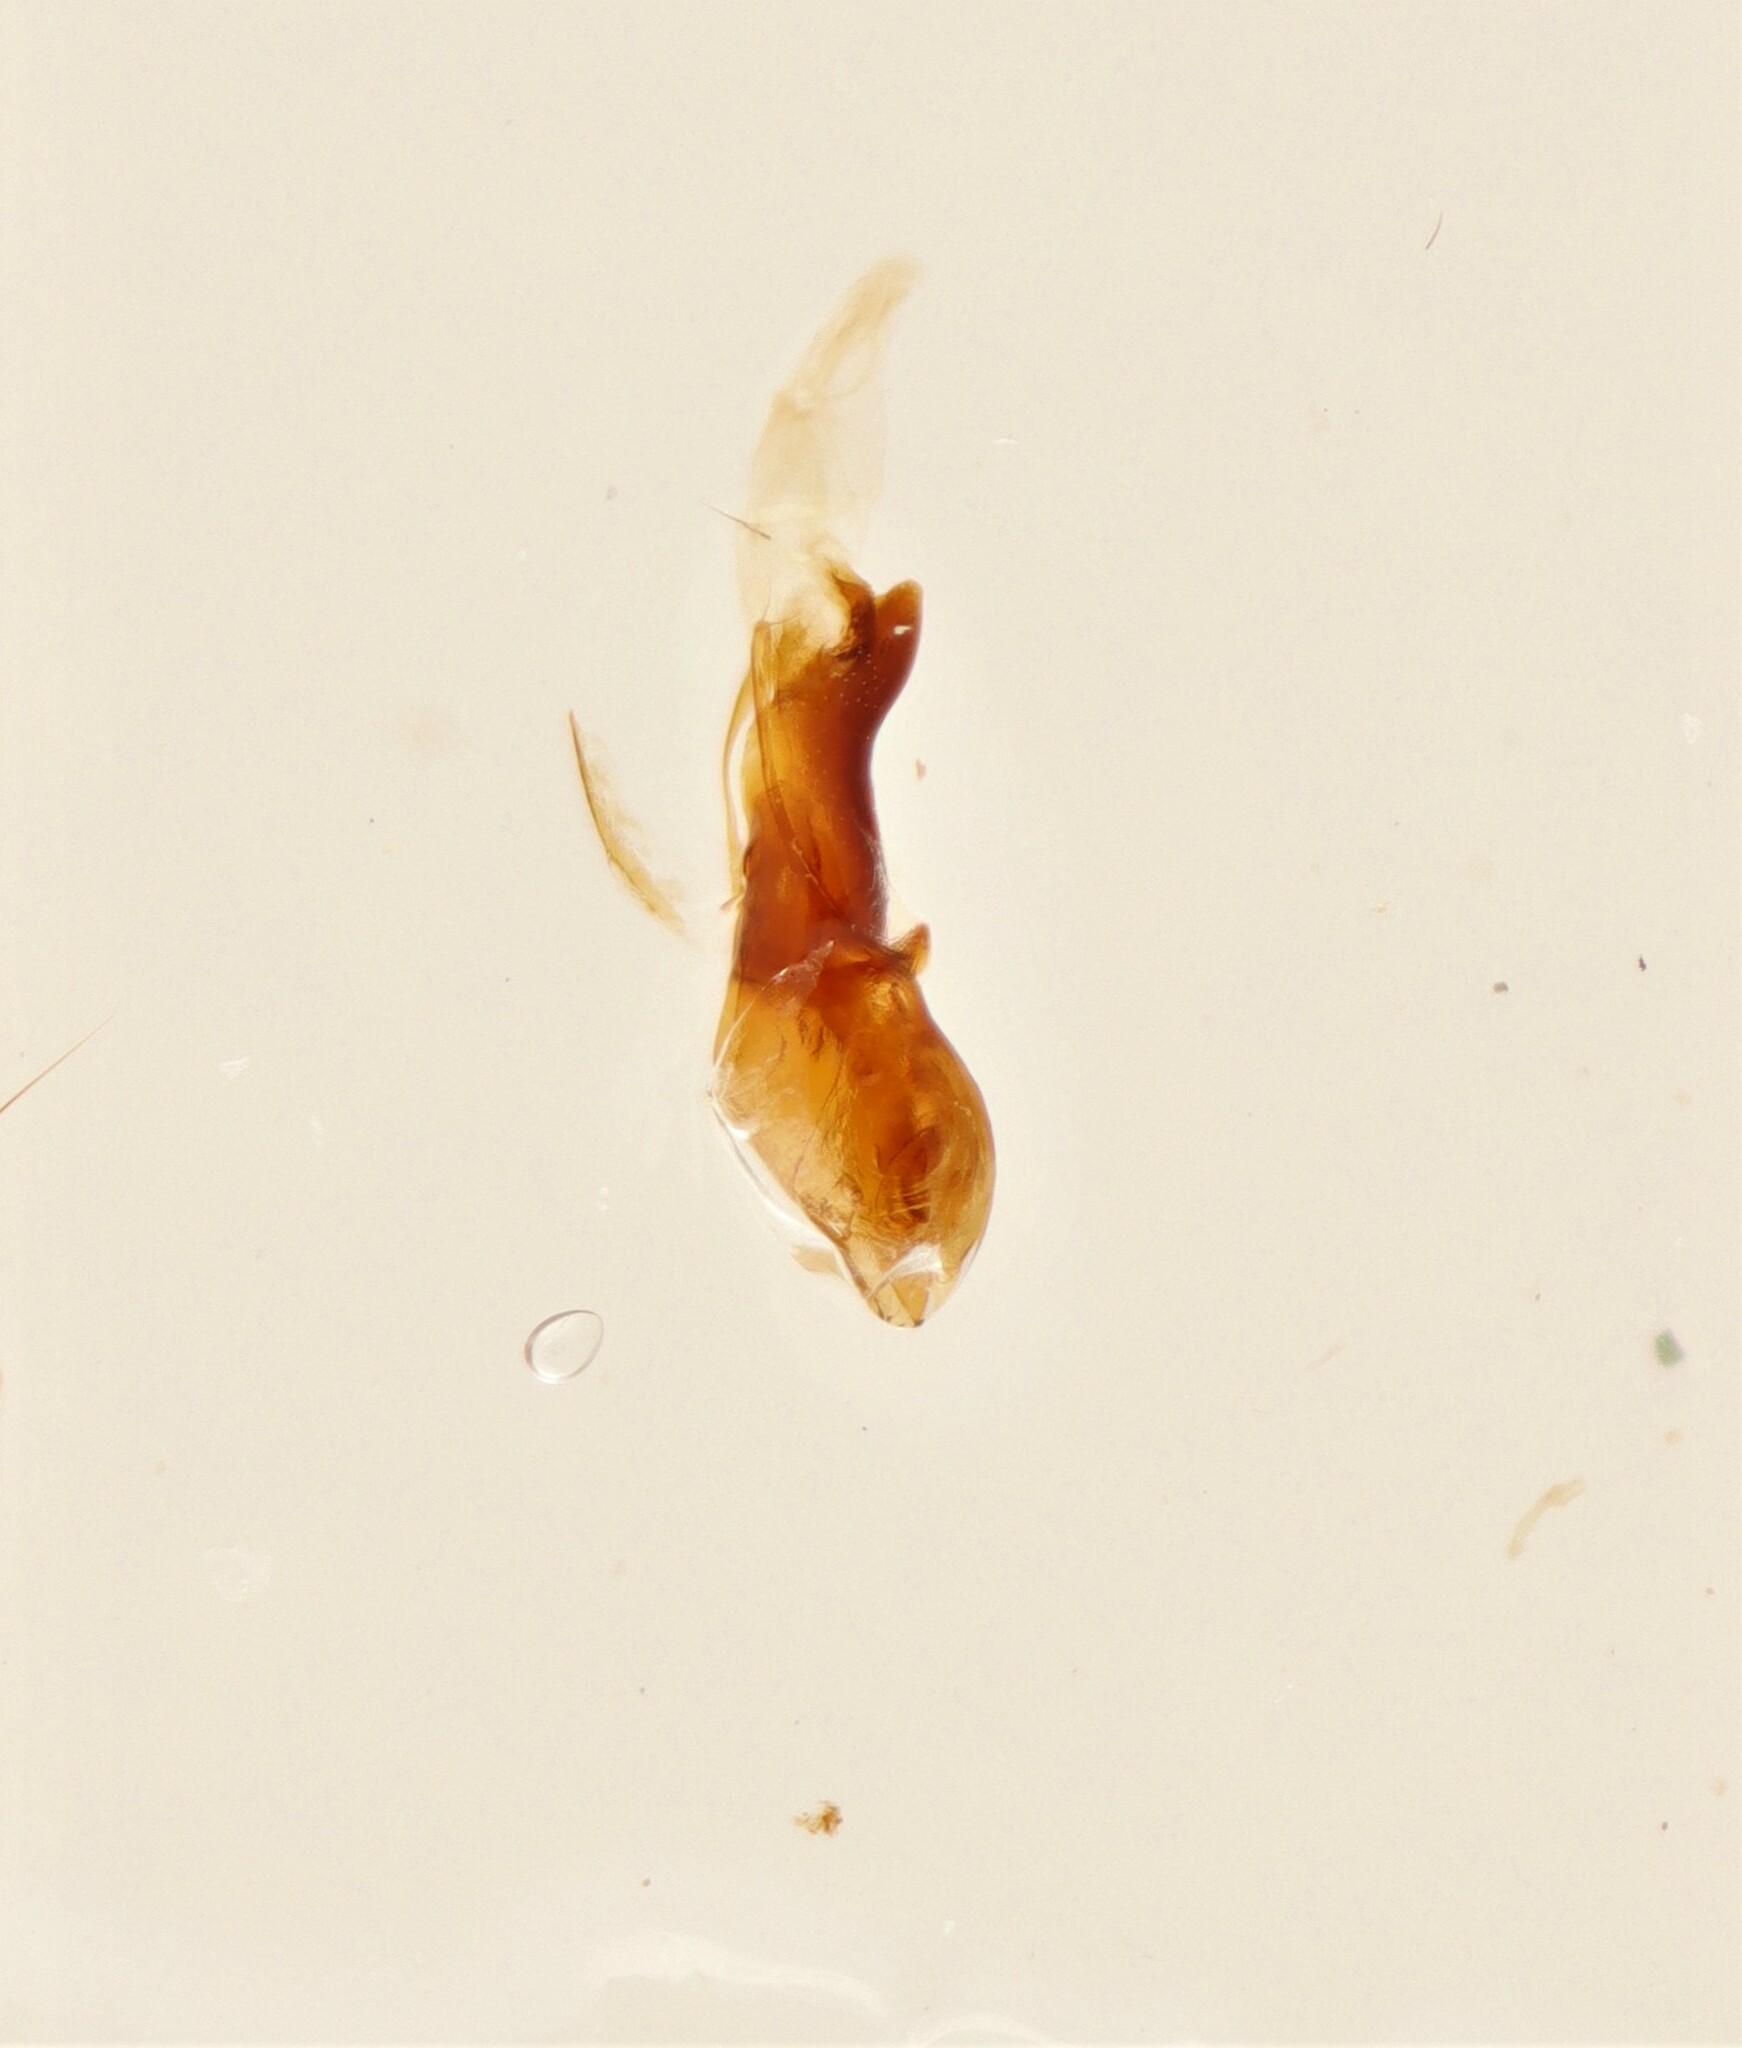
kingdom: Animalia
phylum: Arthropoda
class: Insecta
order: Coleoptera
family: Staphylinidae
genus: Atrecus
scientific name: Atrecus macrocephalus
